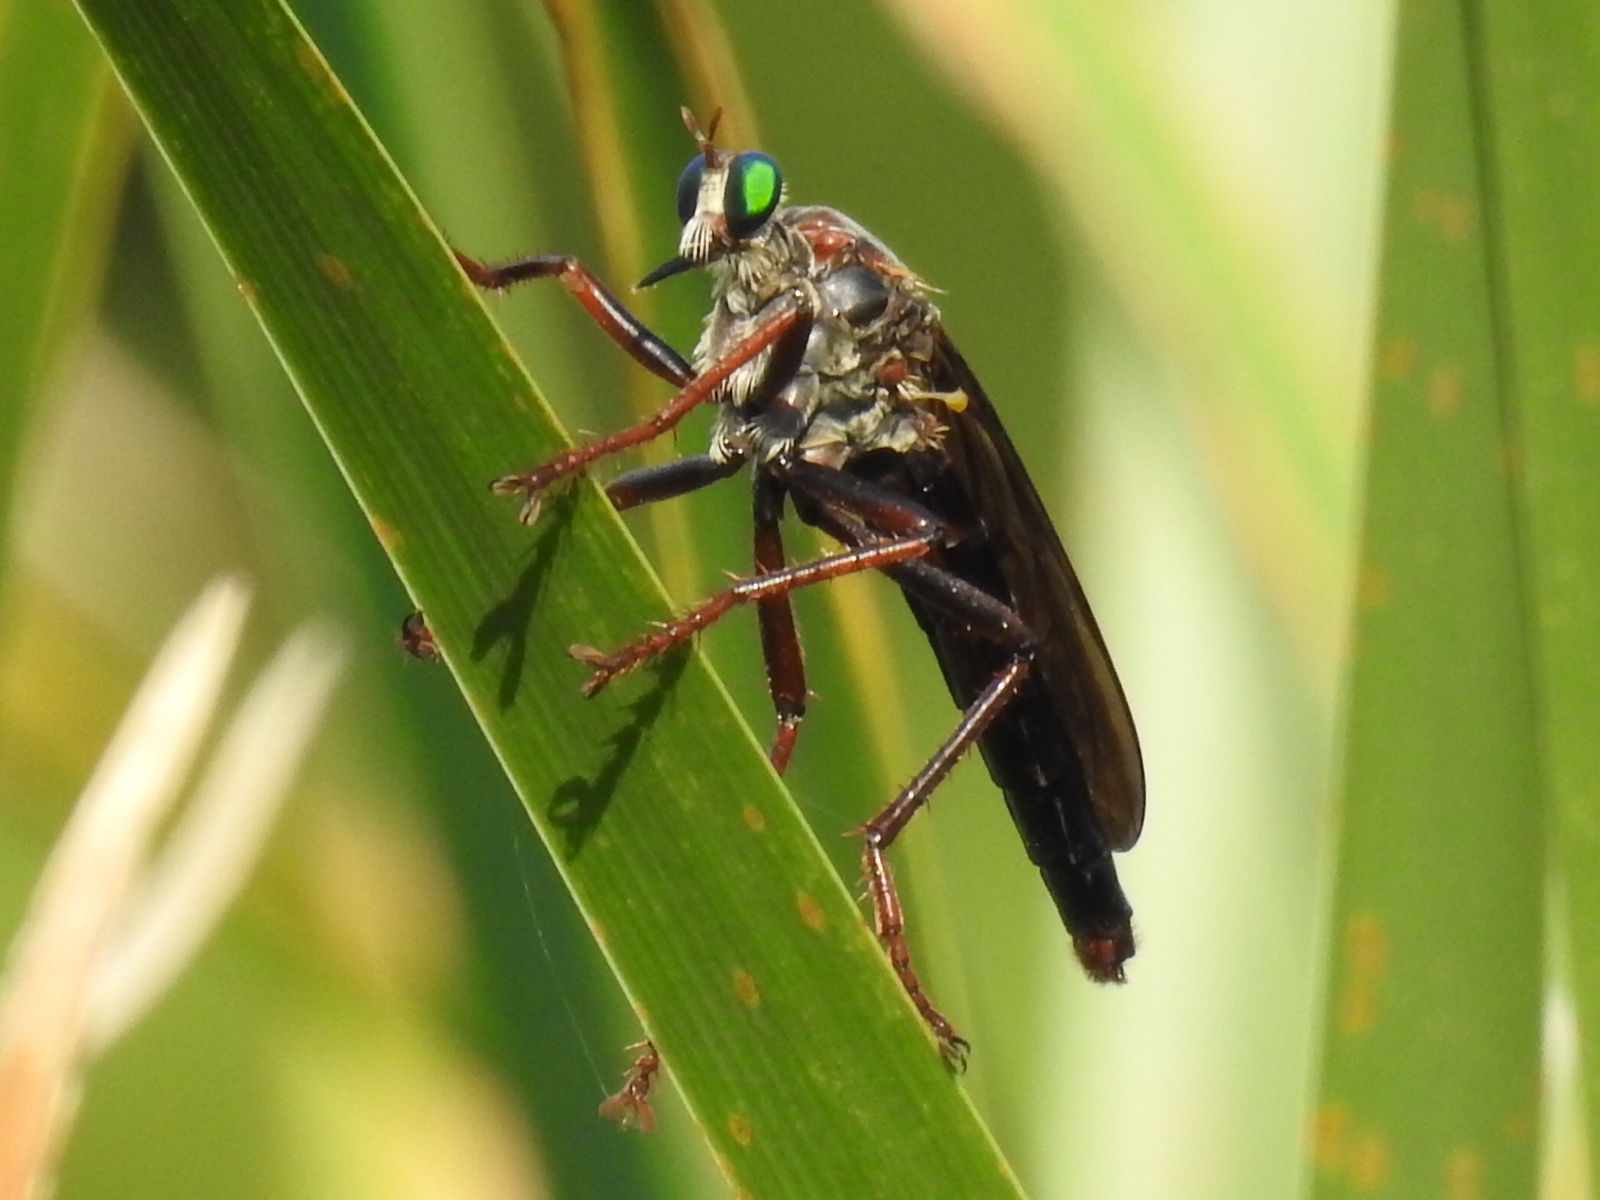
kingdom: Animalia
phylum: Arthropoda
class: Insecta
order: Diptera
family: Asilidae
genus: Microstylum
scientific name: Microstylum morosum
